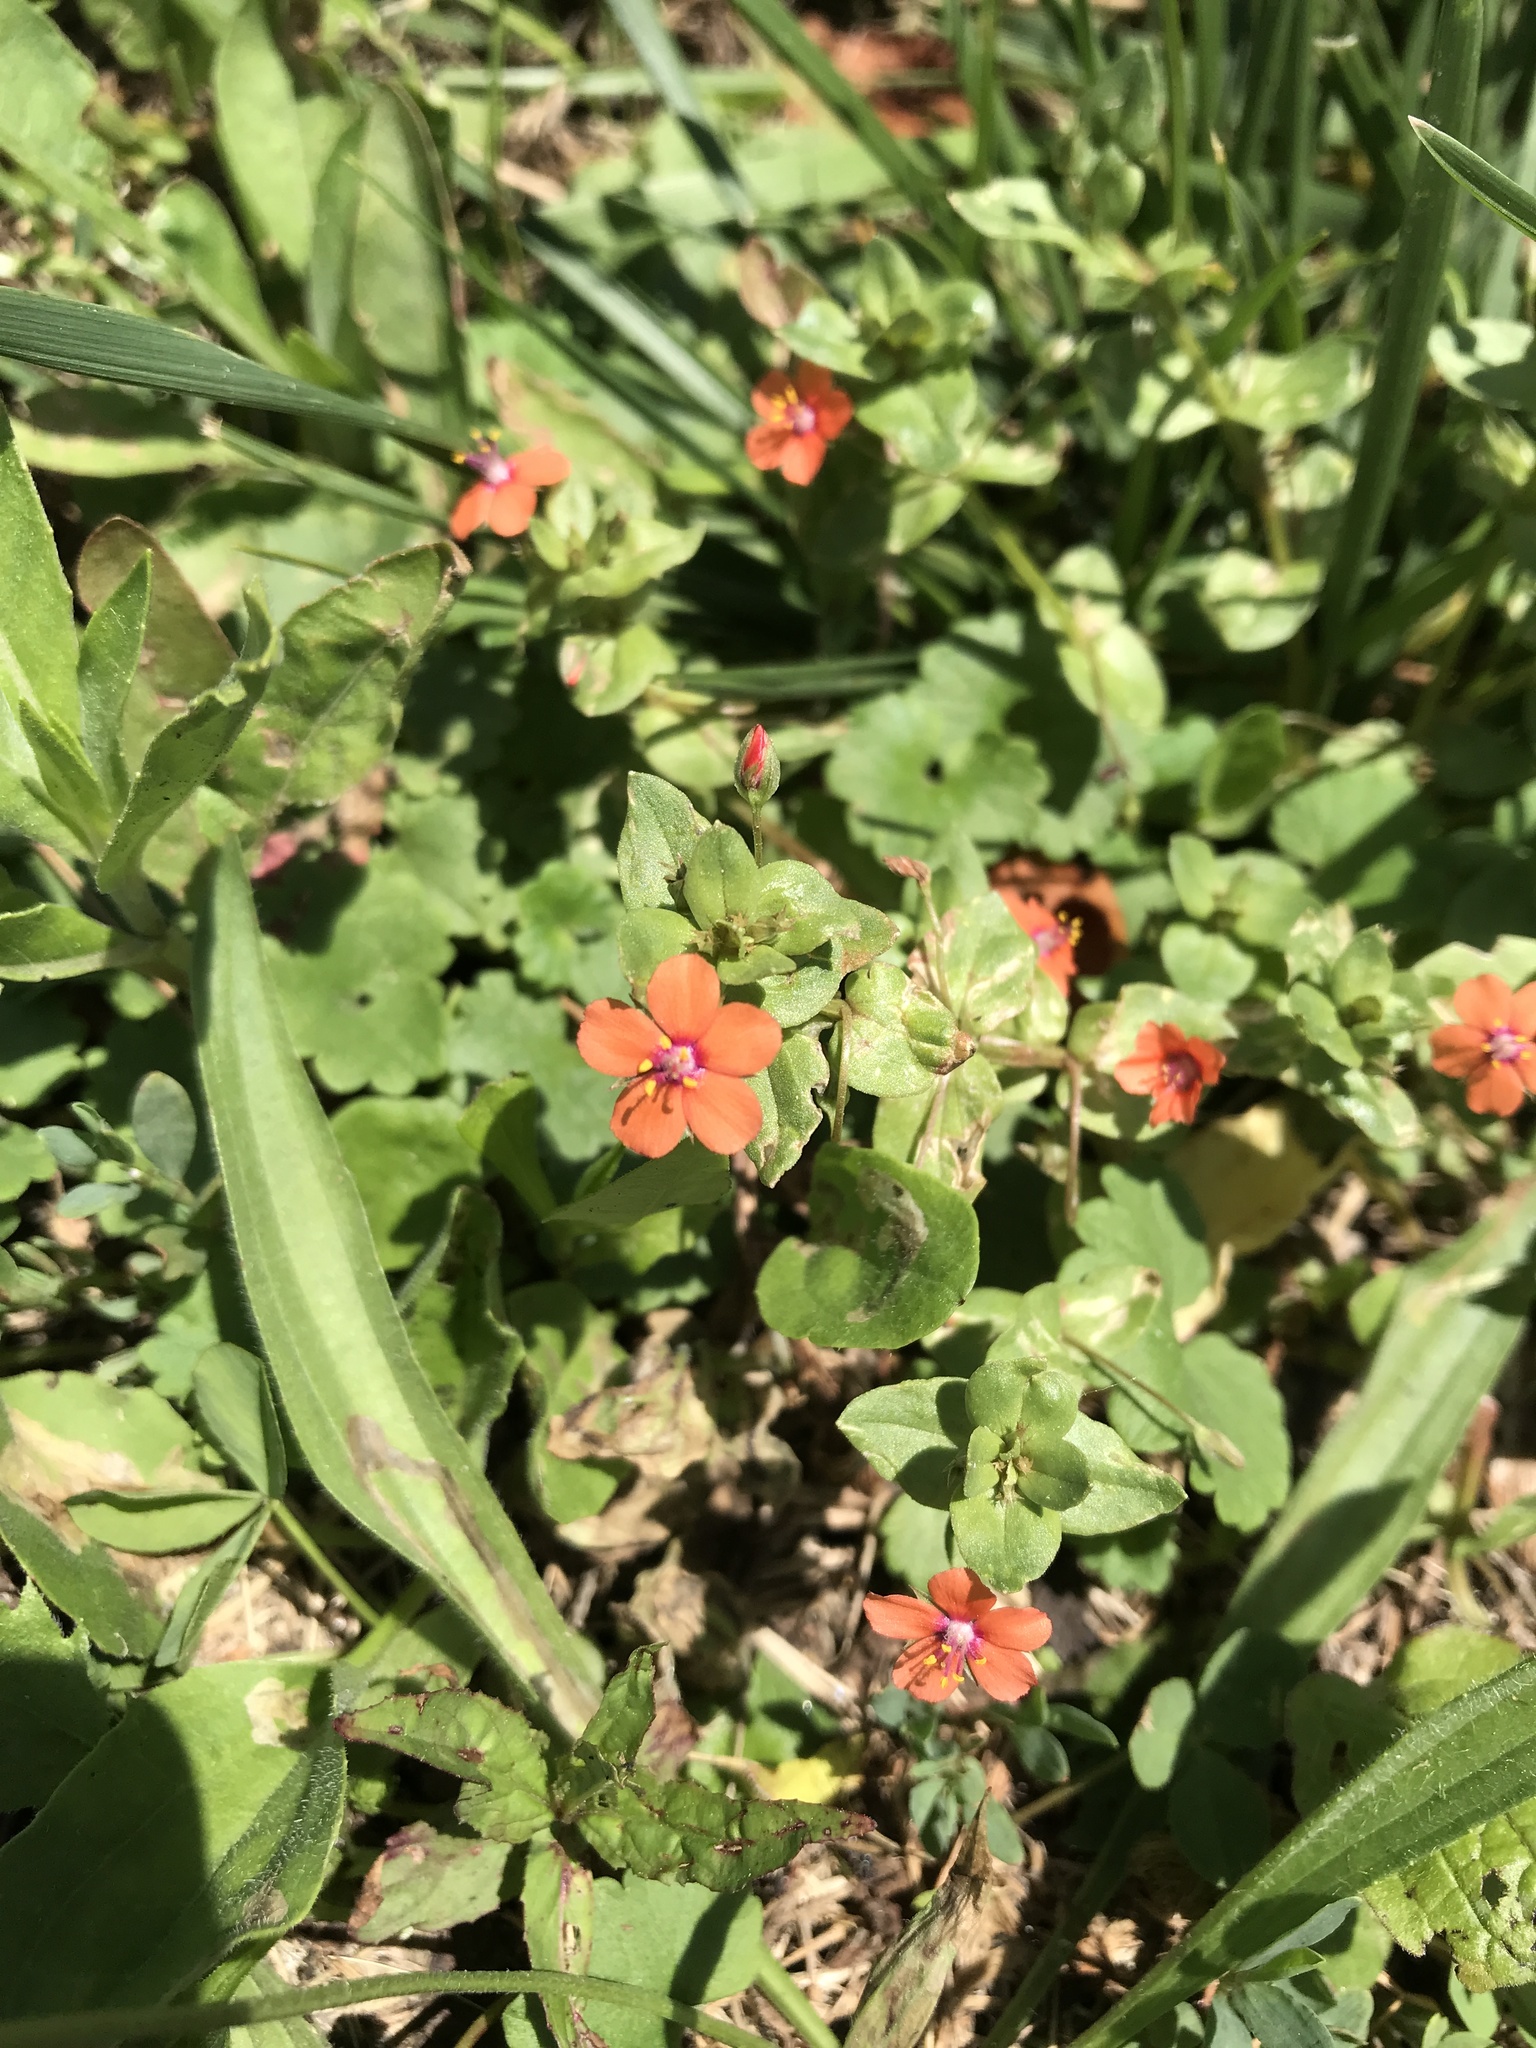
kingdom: Plantae
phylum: Tracheophyta
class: Magnoliopsida
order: Ericales
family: Primulaceae
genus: Lysimachia
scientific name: Lysimachia arvensis
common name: Scarlet pimpernel
